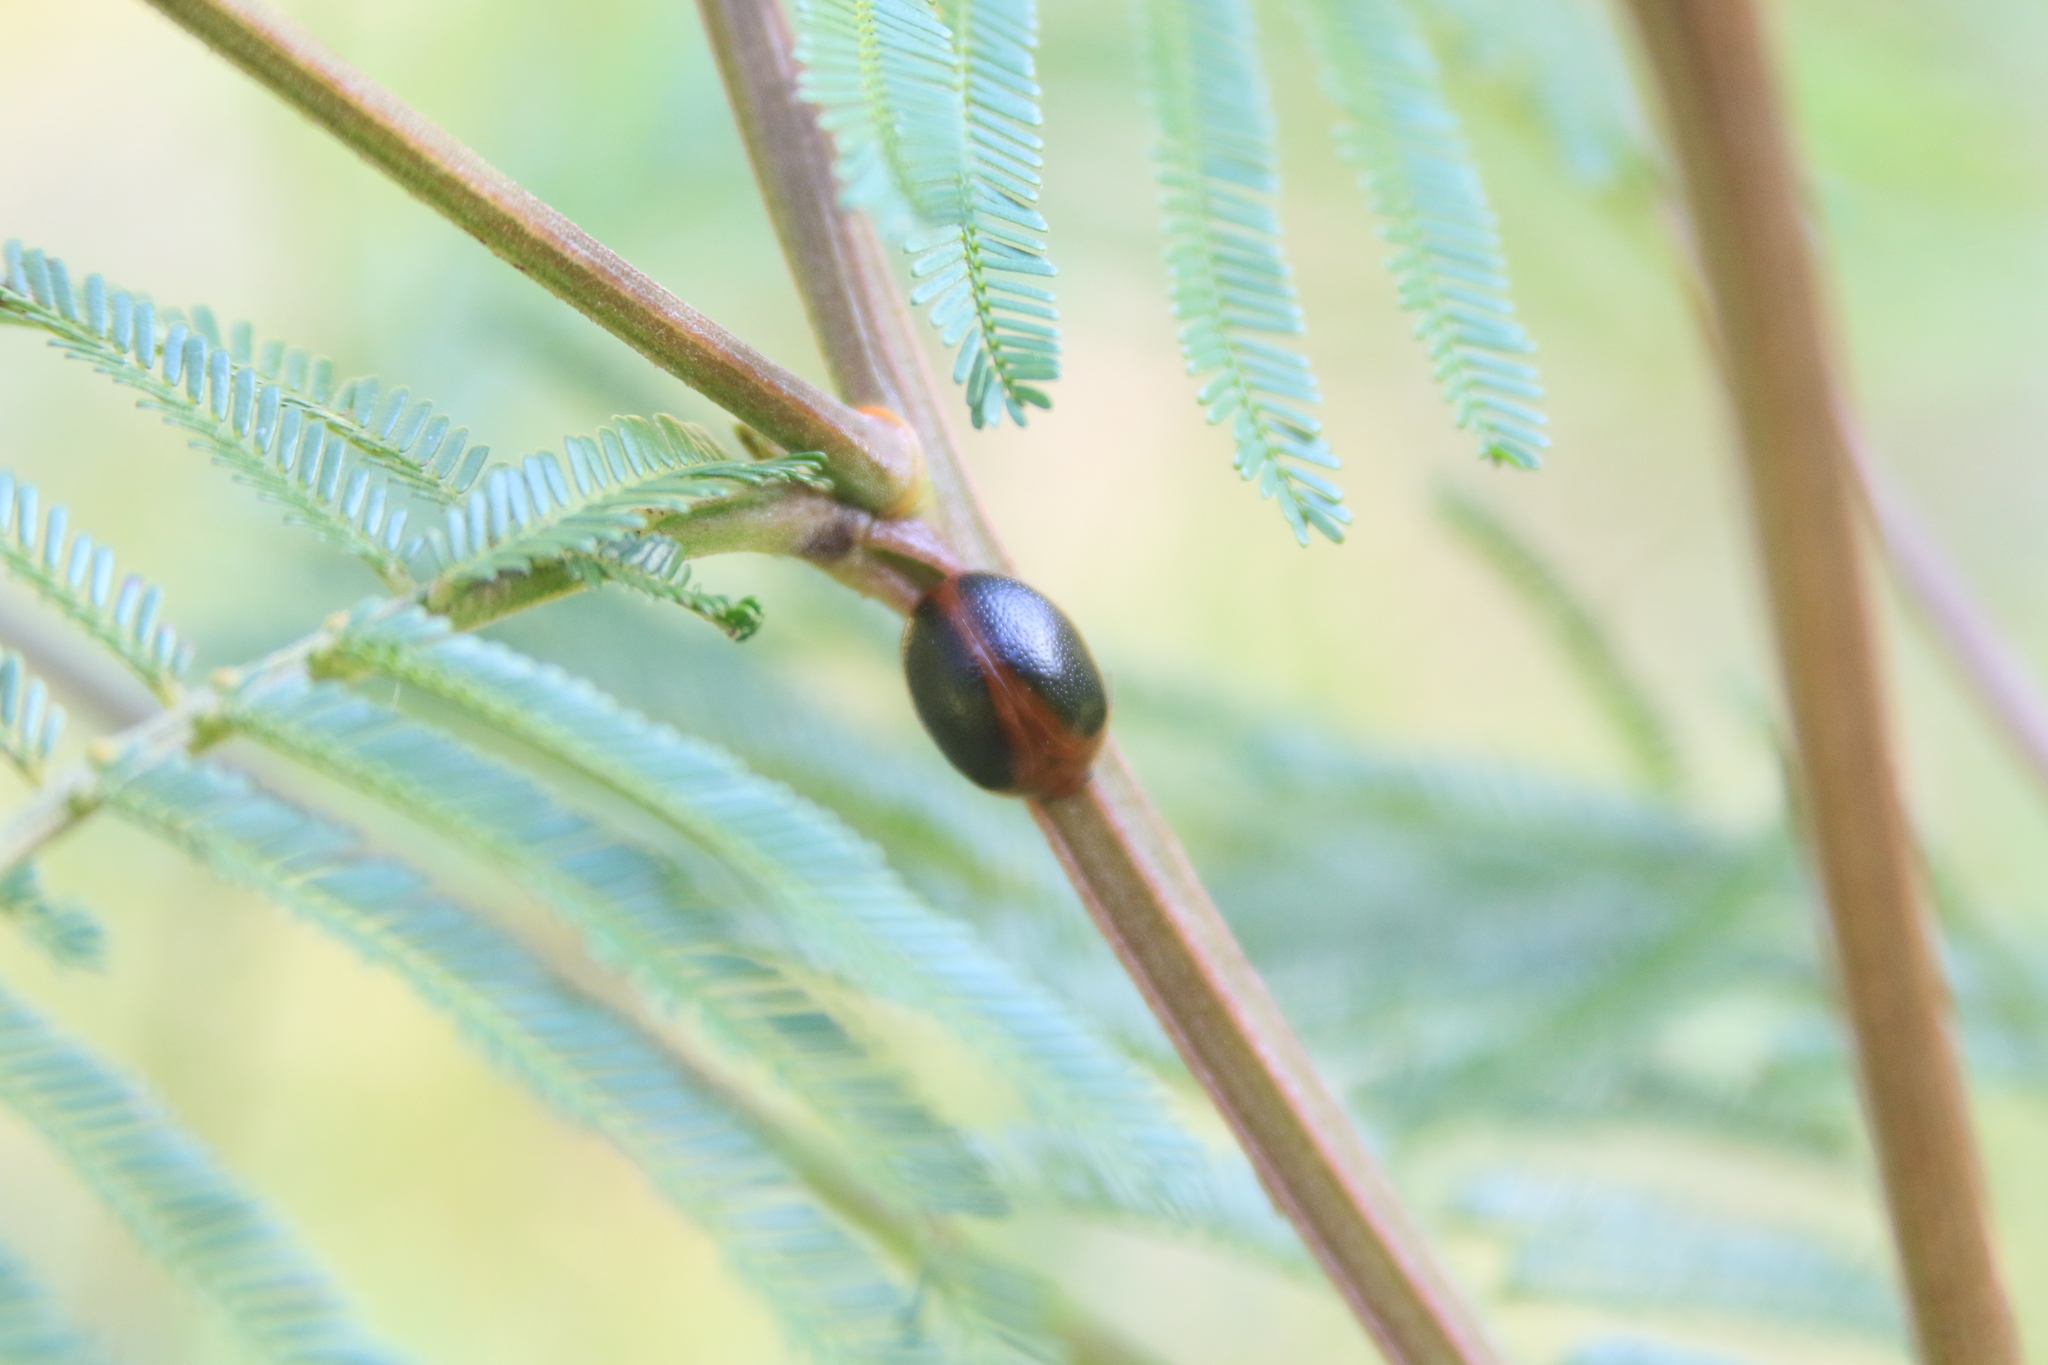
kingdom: Animalia
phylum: Arthropoda
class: Insecta
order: Coleoptera
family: Chrysomelidae
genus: Dicranosterna
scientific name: Dicranosterna
